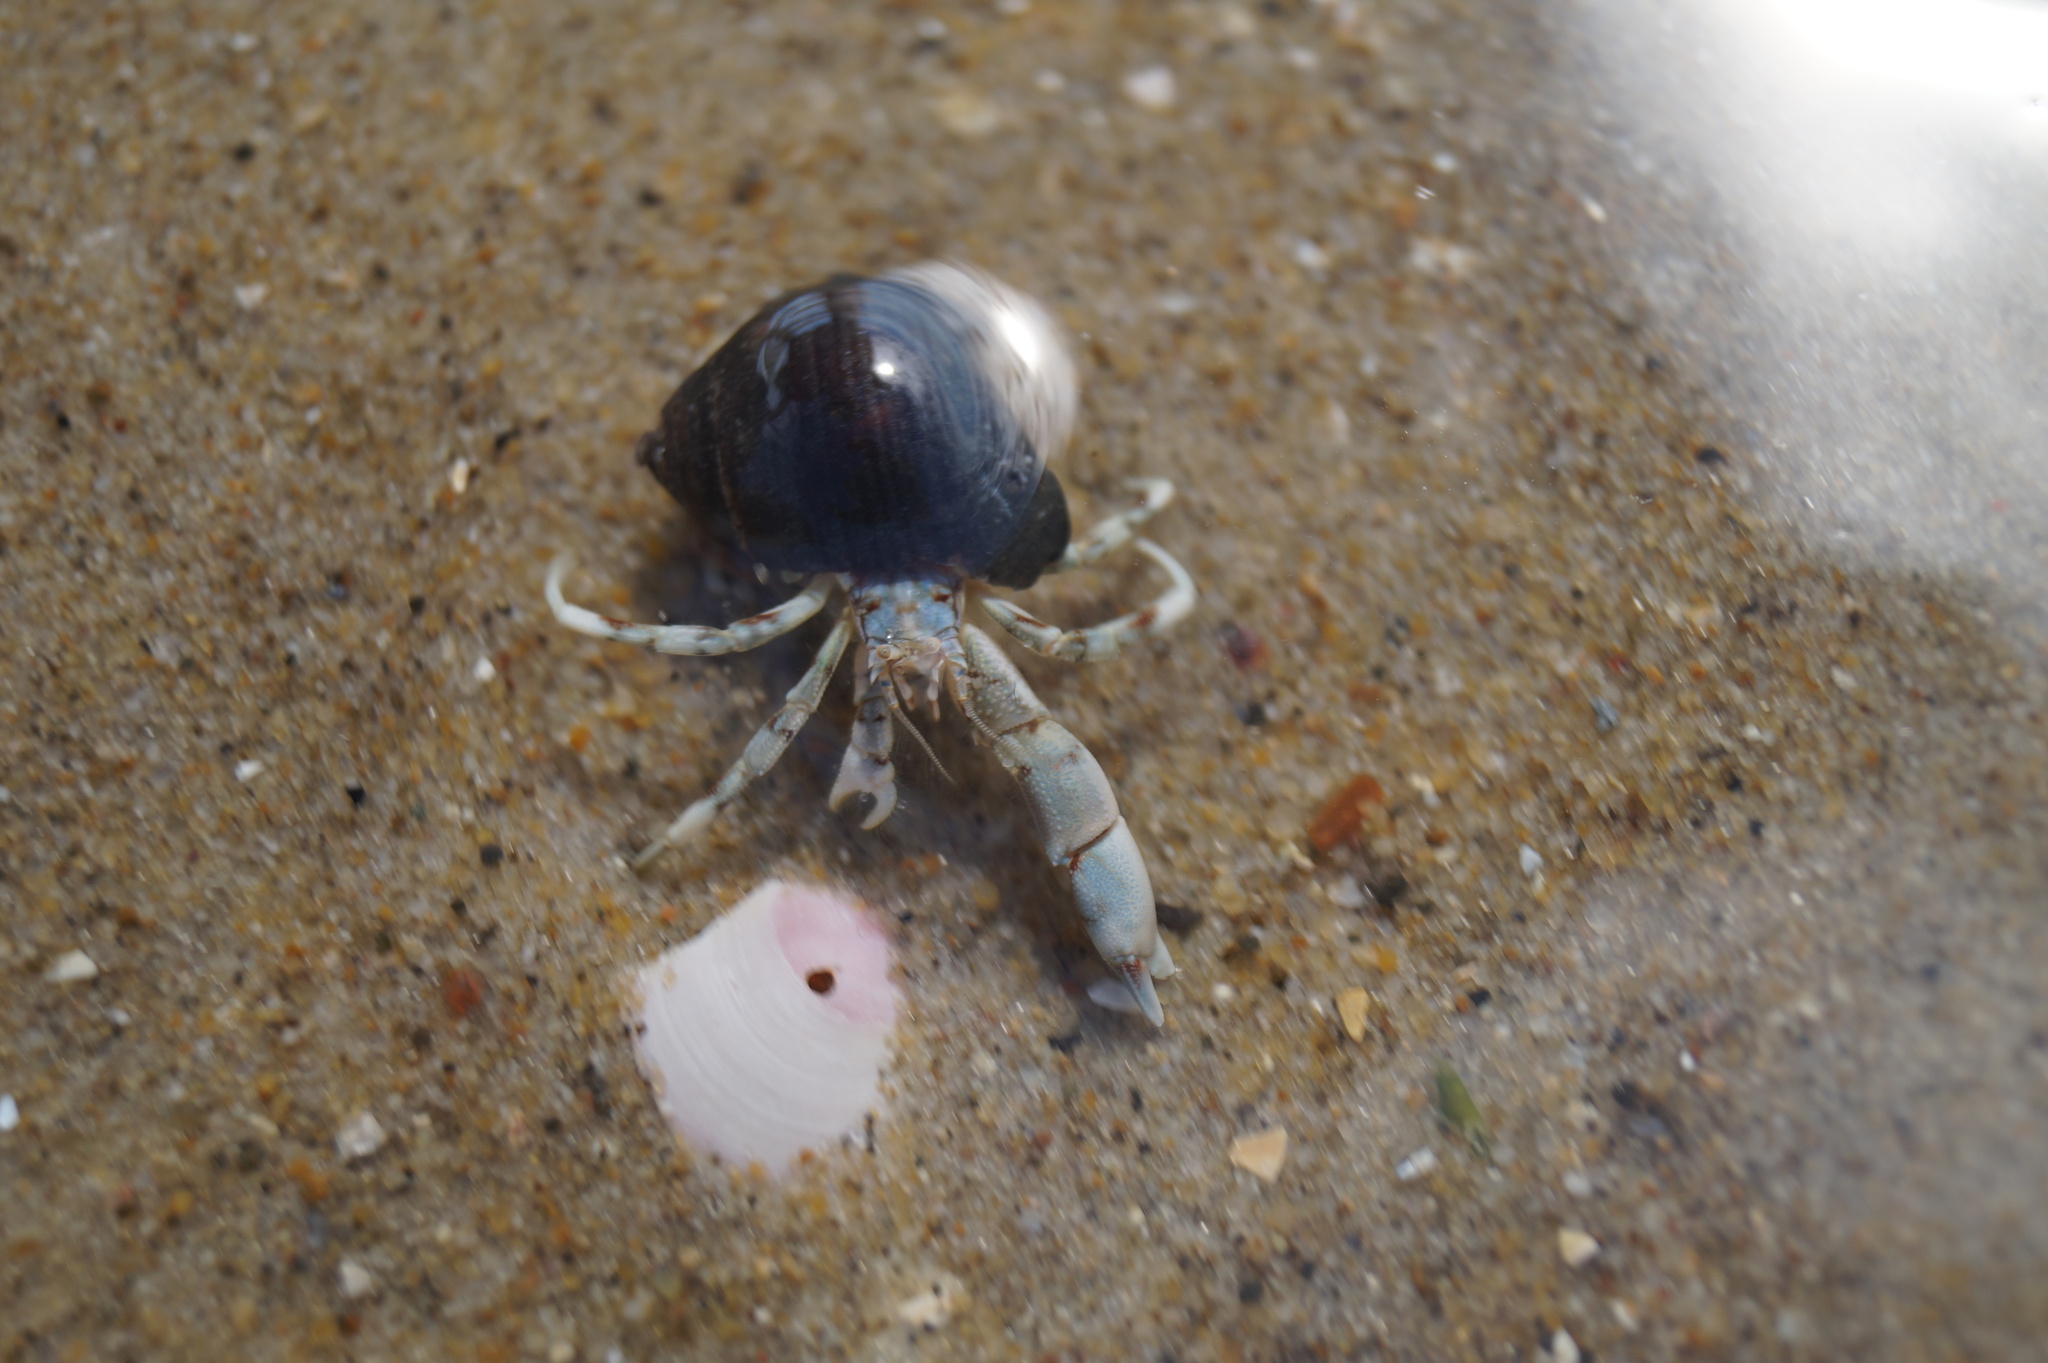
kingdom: Animalia
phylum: Arthropoda
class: Malacostraca
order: Decapoda
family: Diogenidae
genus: Diogenes
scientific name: Diogenes pugilator
